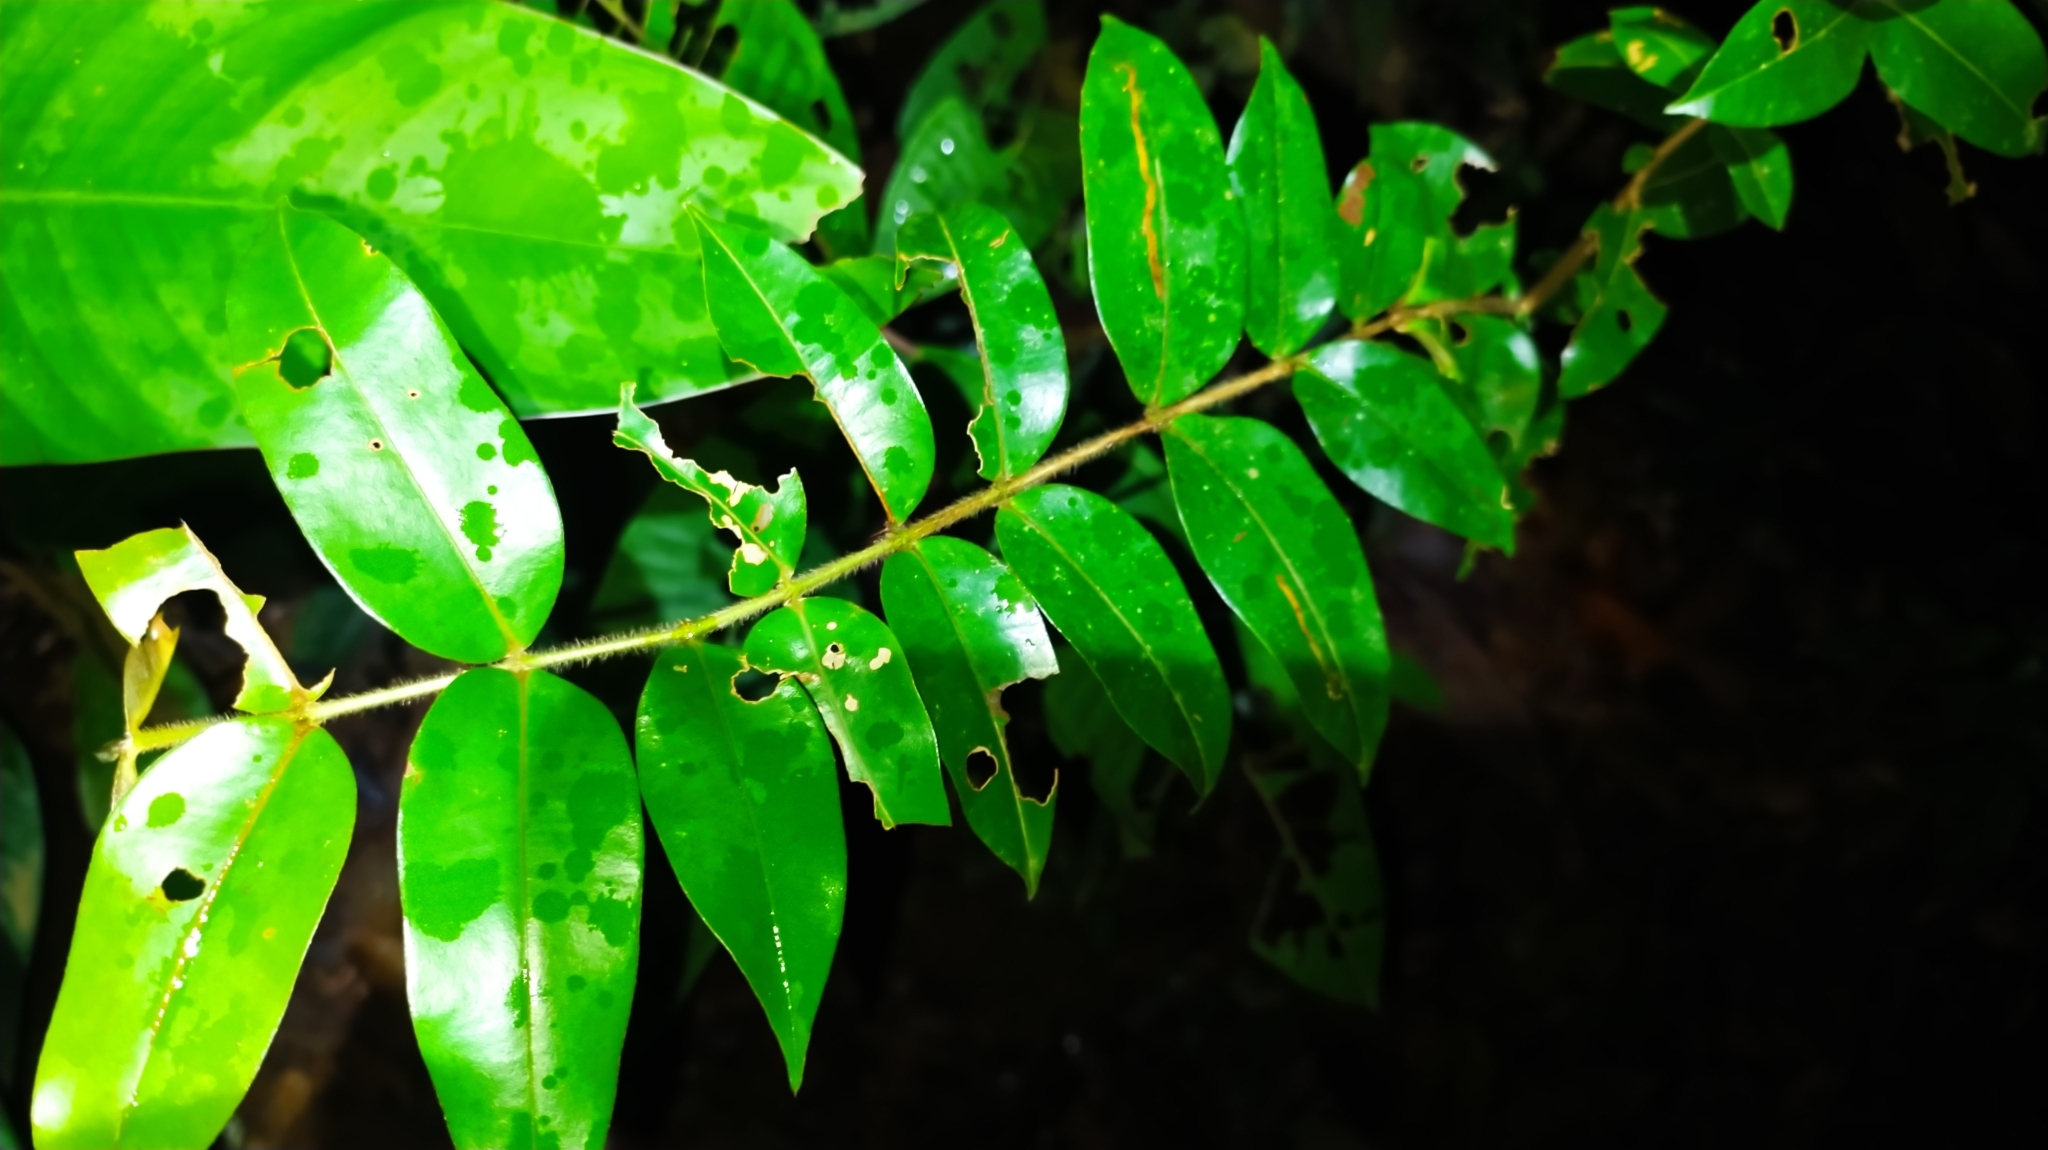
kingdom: Plantae
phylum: Tracheophyta
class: Magnoliopsida
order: Gentianales
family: Rubiaceae
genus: Palicourea
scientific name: Palicourea callithrix
